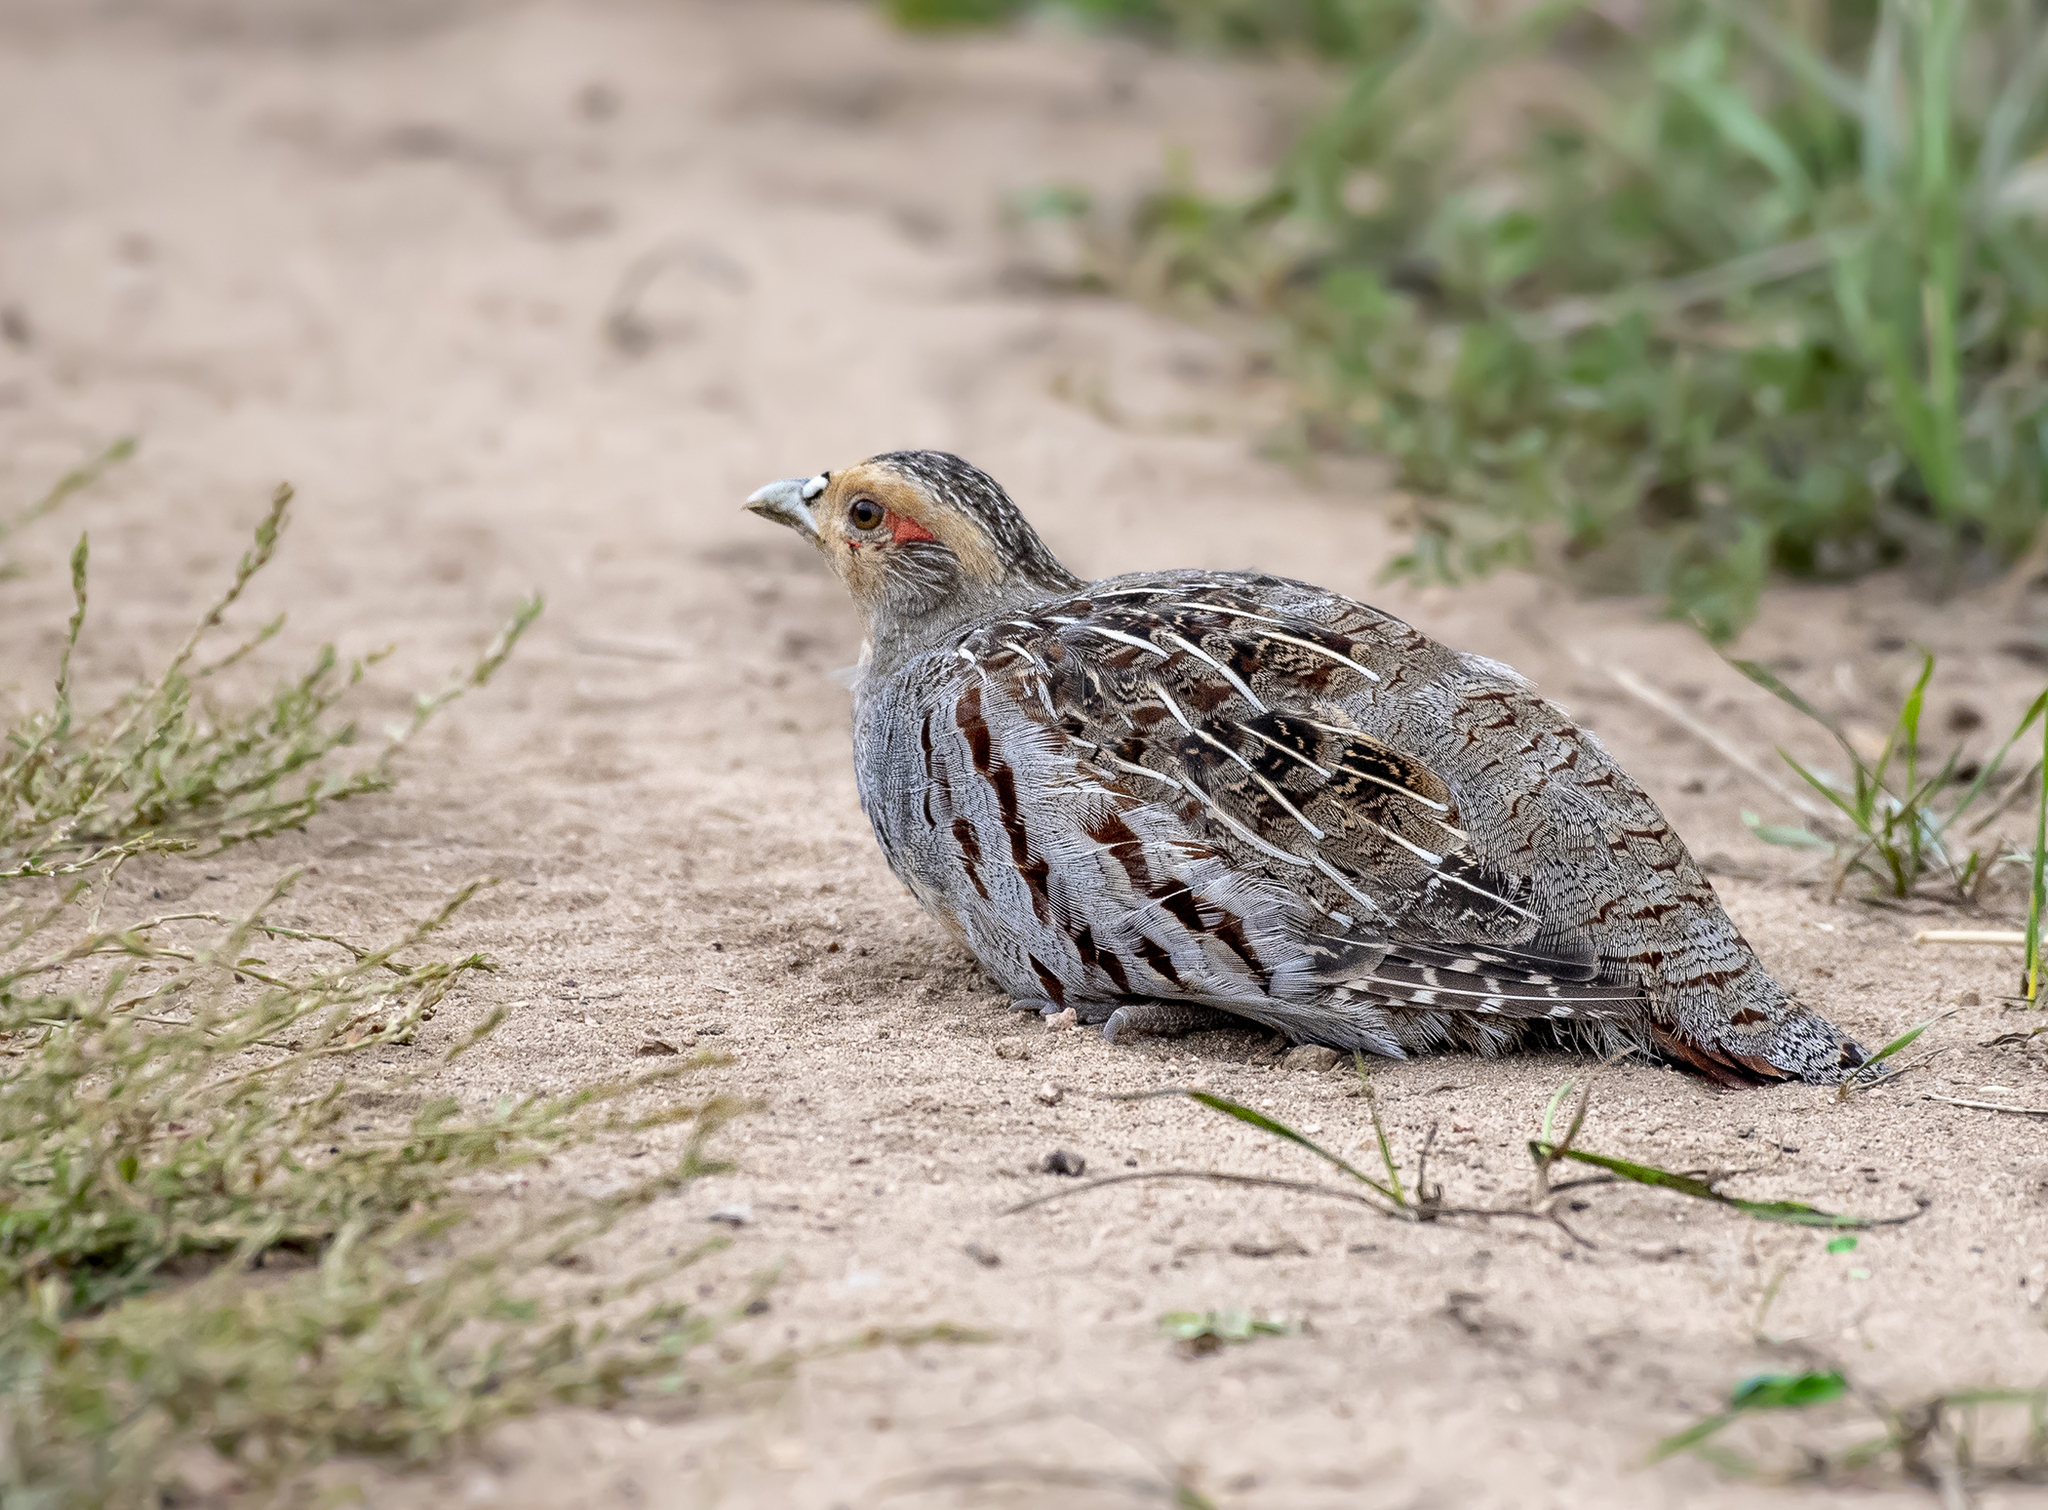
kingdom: Animalia
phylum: Chordata
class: Aves
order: Galliformes
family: Phasianidae
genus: Perdix
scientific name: Perdix dauurica
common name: Daurian partridge
